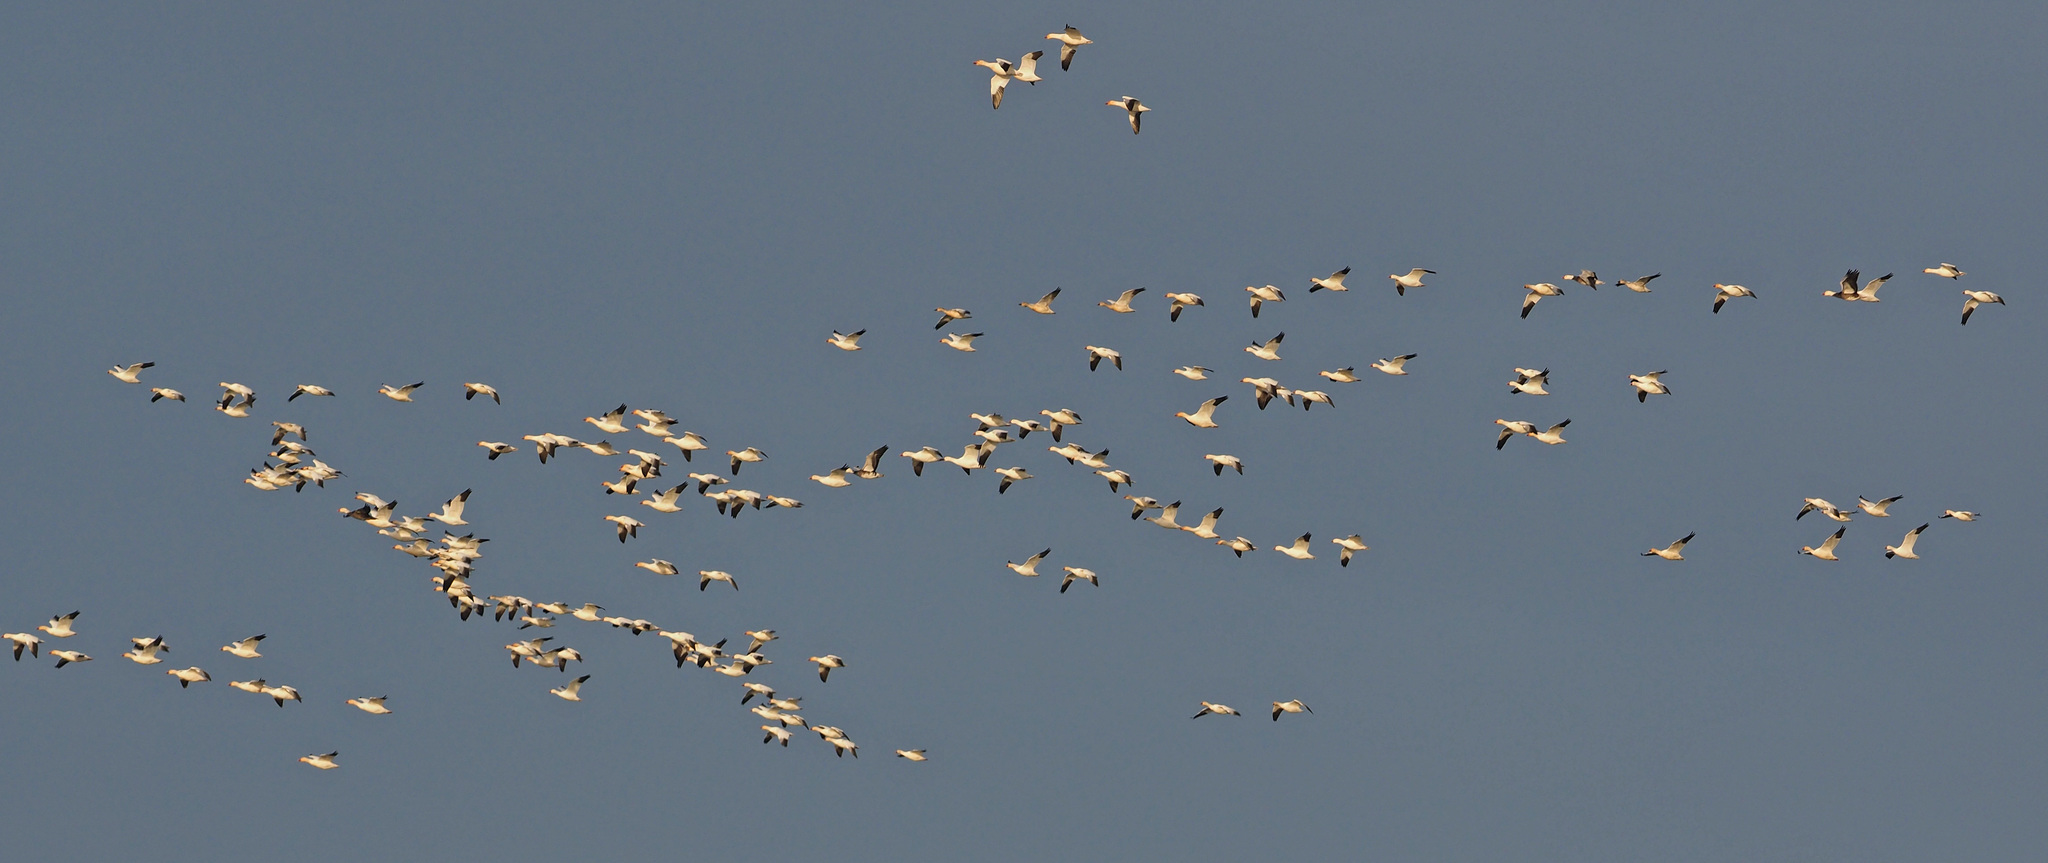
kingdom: Animalia
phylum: Chordata
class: Aves
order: Anseriformes
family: Anatidae
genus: Anser
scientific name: Anser caerulescens
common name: Snow goose
